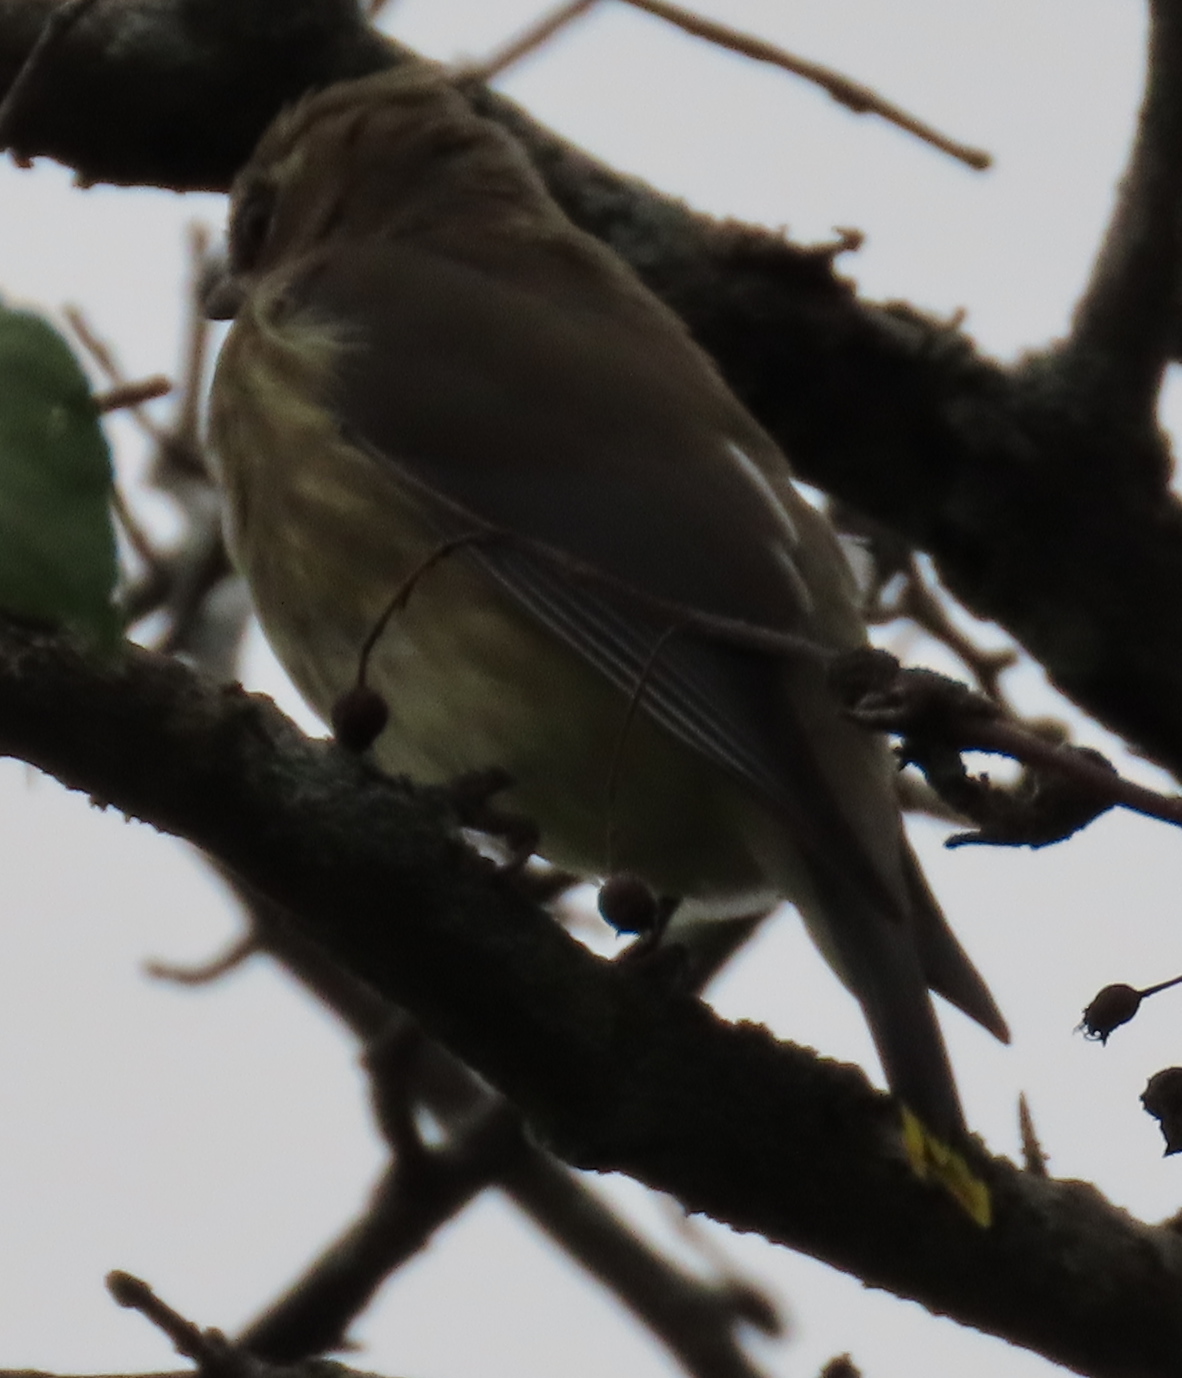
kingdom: Animalia
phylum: Chordata
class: Aves
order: Passeriformes
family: Bombycillidae
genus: Bombycilla
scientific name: Bombycilla cedrorum
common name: Cedar waxwing
